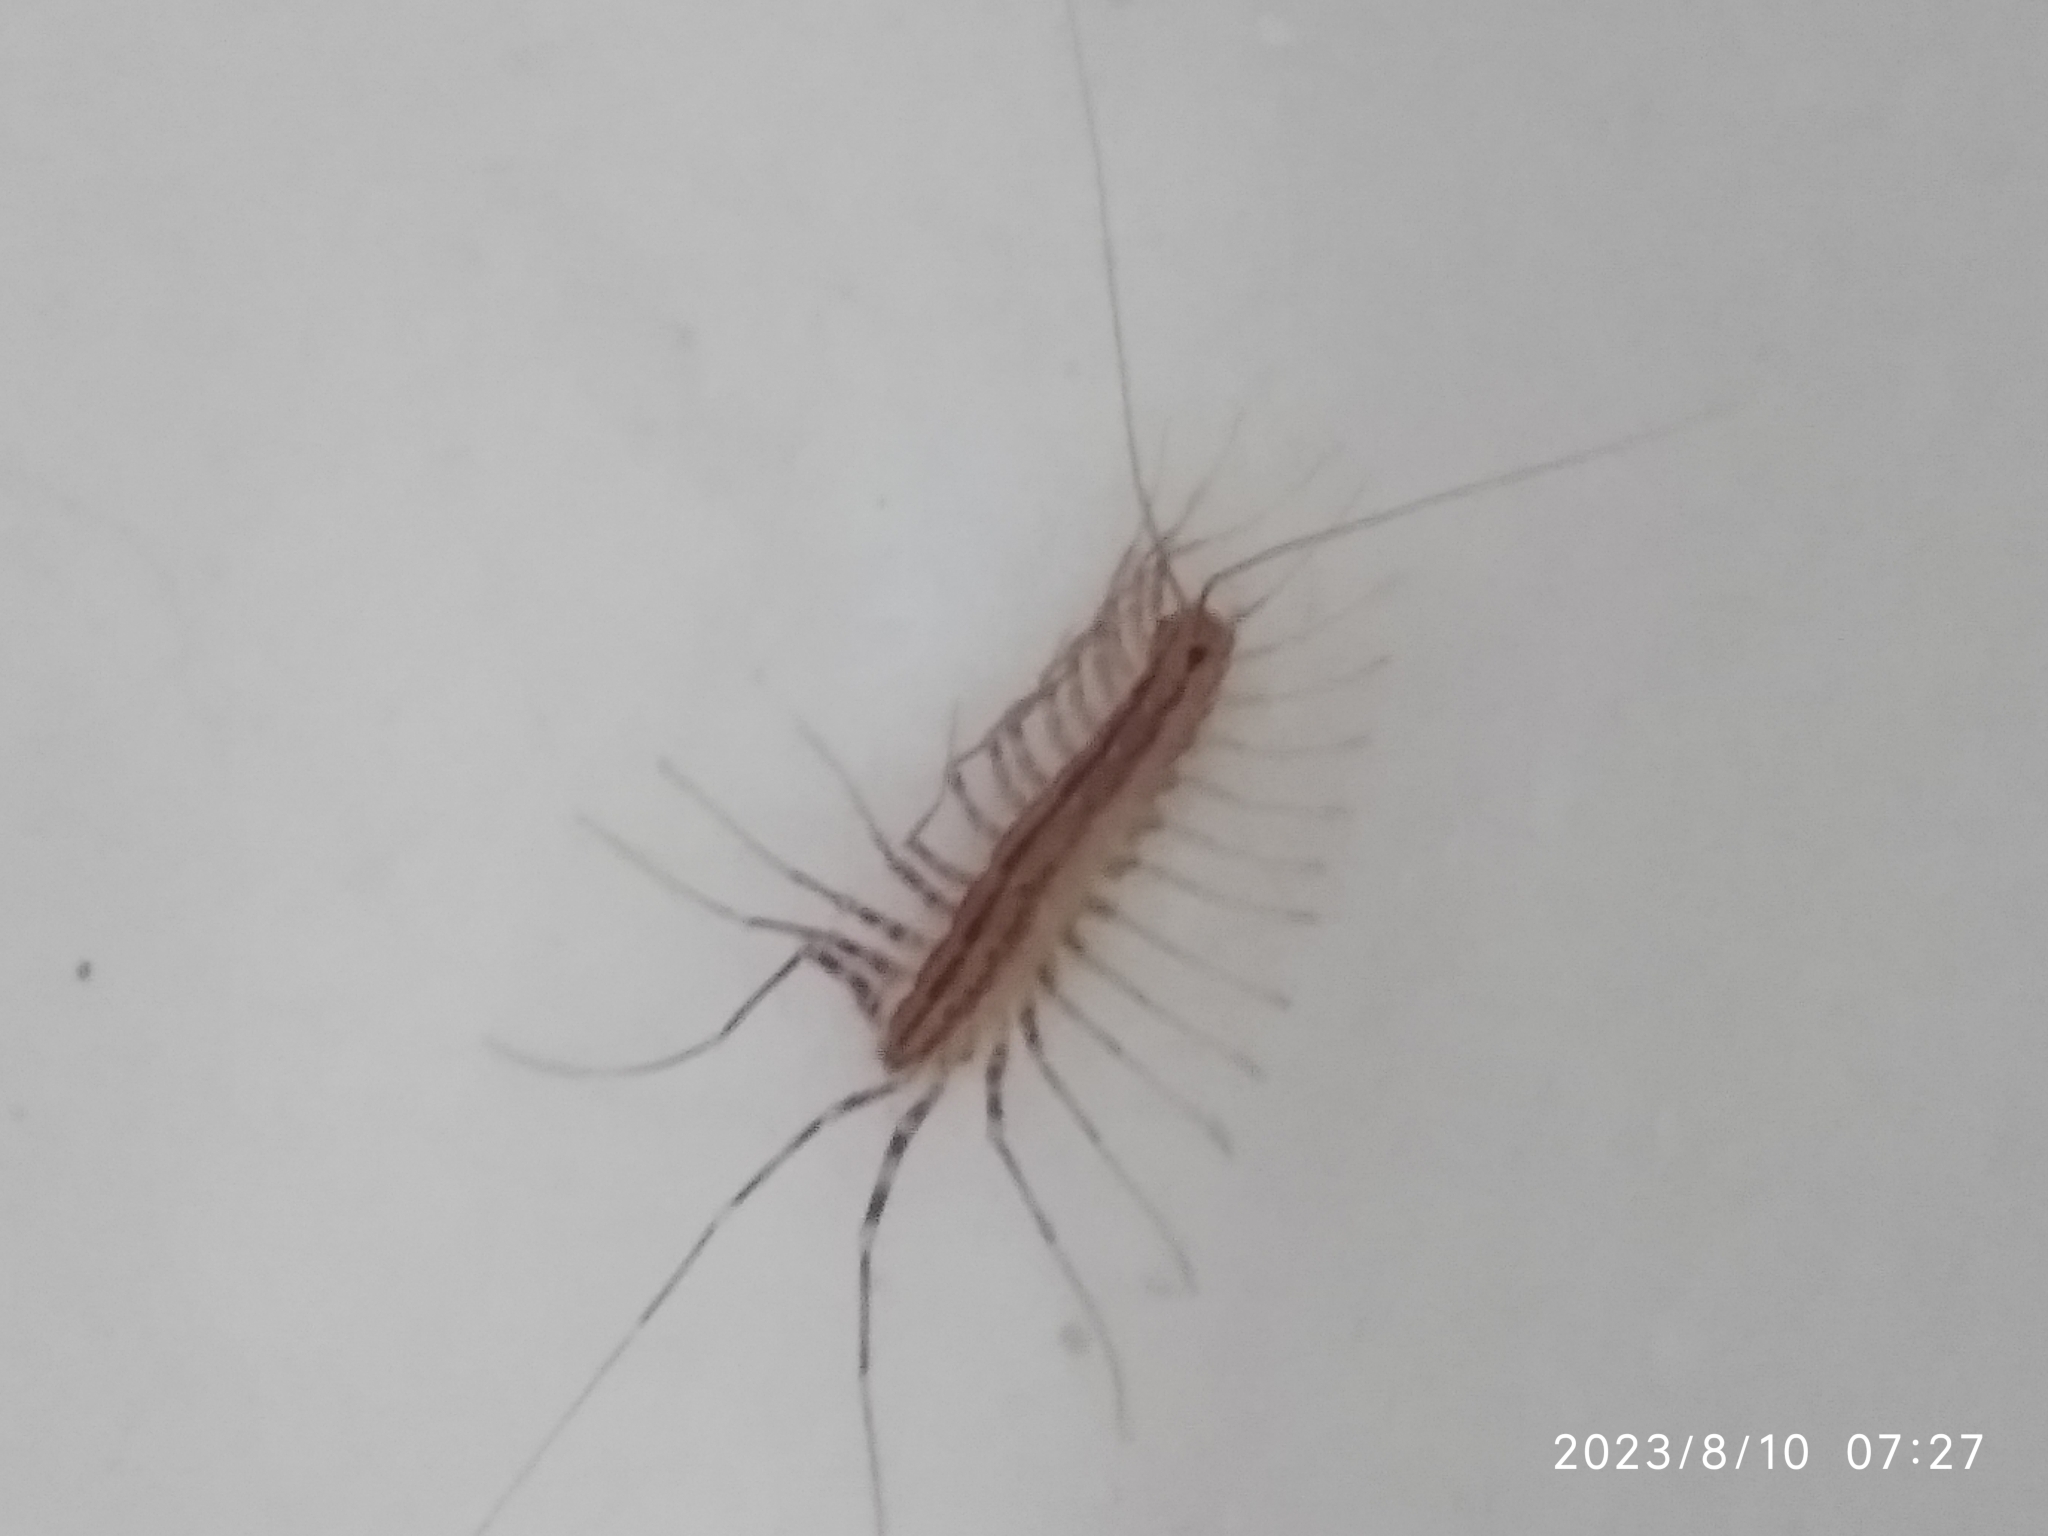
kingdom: Animalia
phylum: Arthropoda
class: Chilopoda
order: Scutigeromorpha
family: Scutigeridae
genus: Scutigera
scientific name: Scutigera coleoptrata
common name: House centipede
